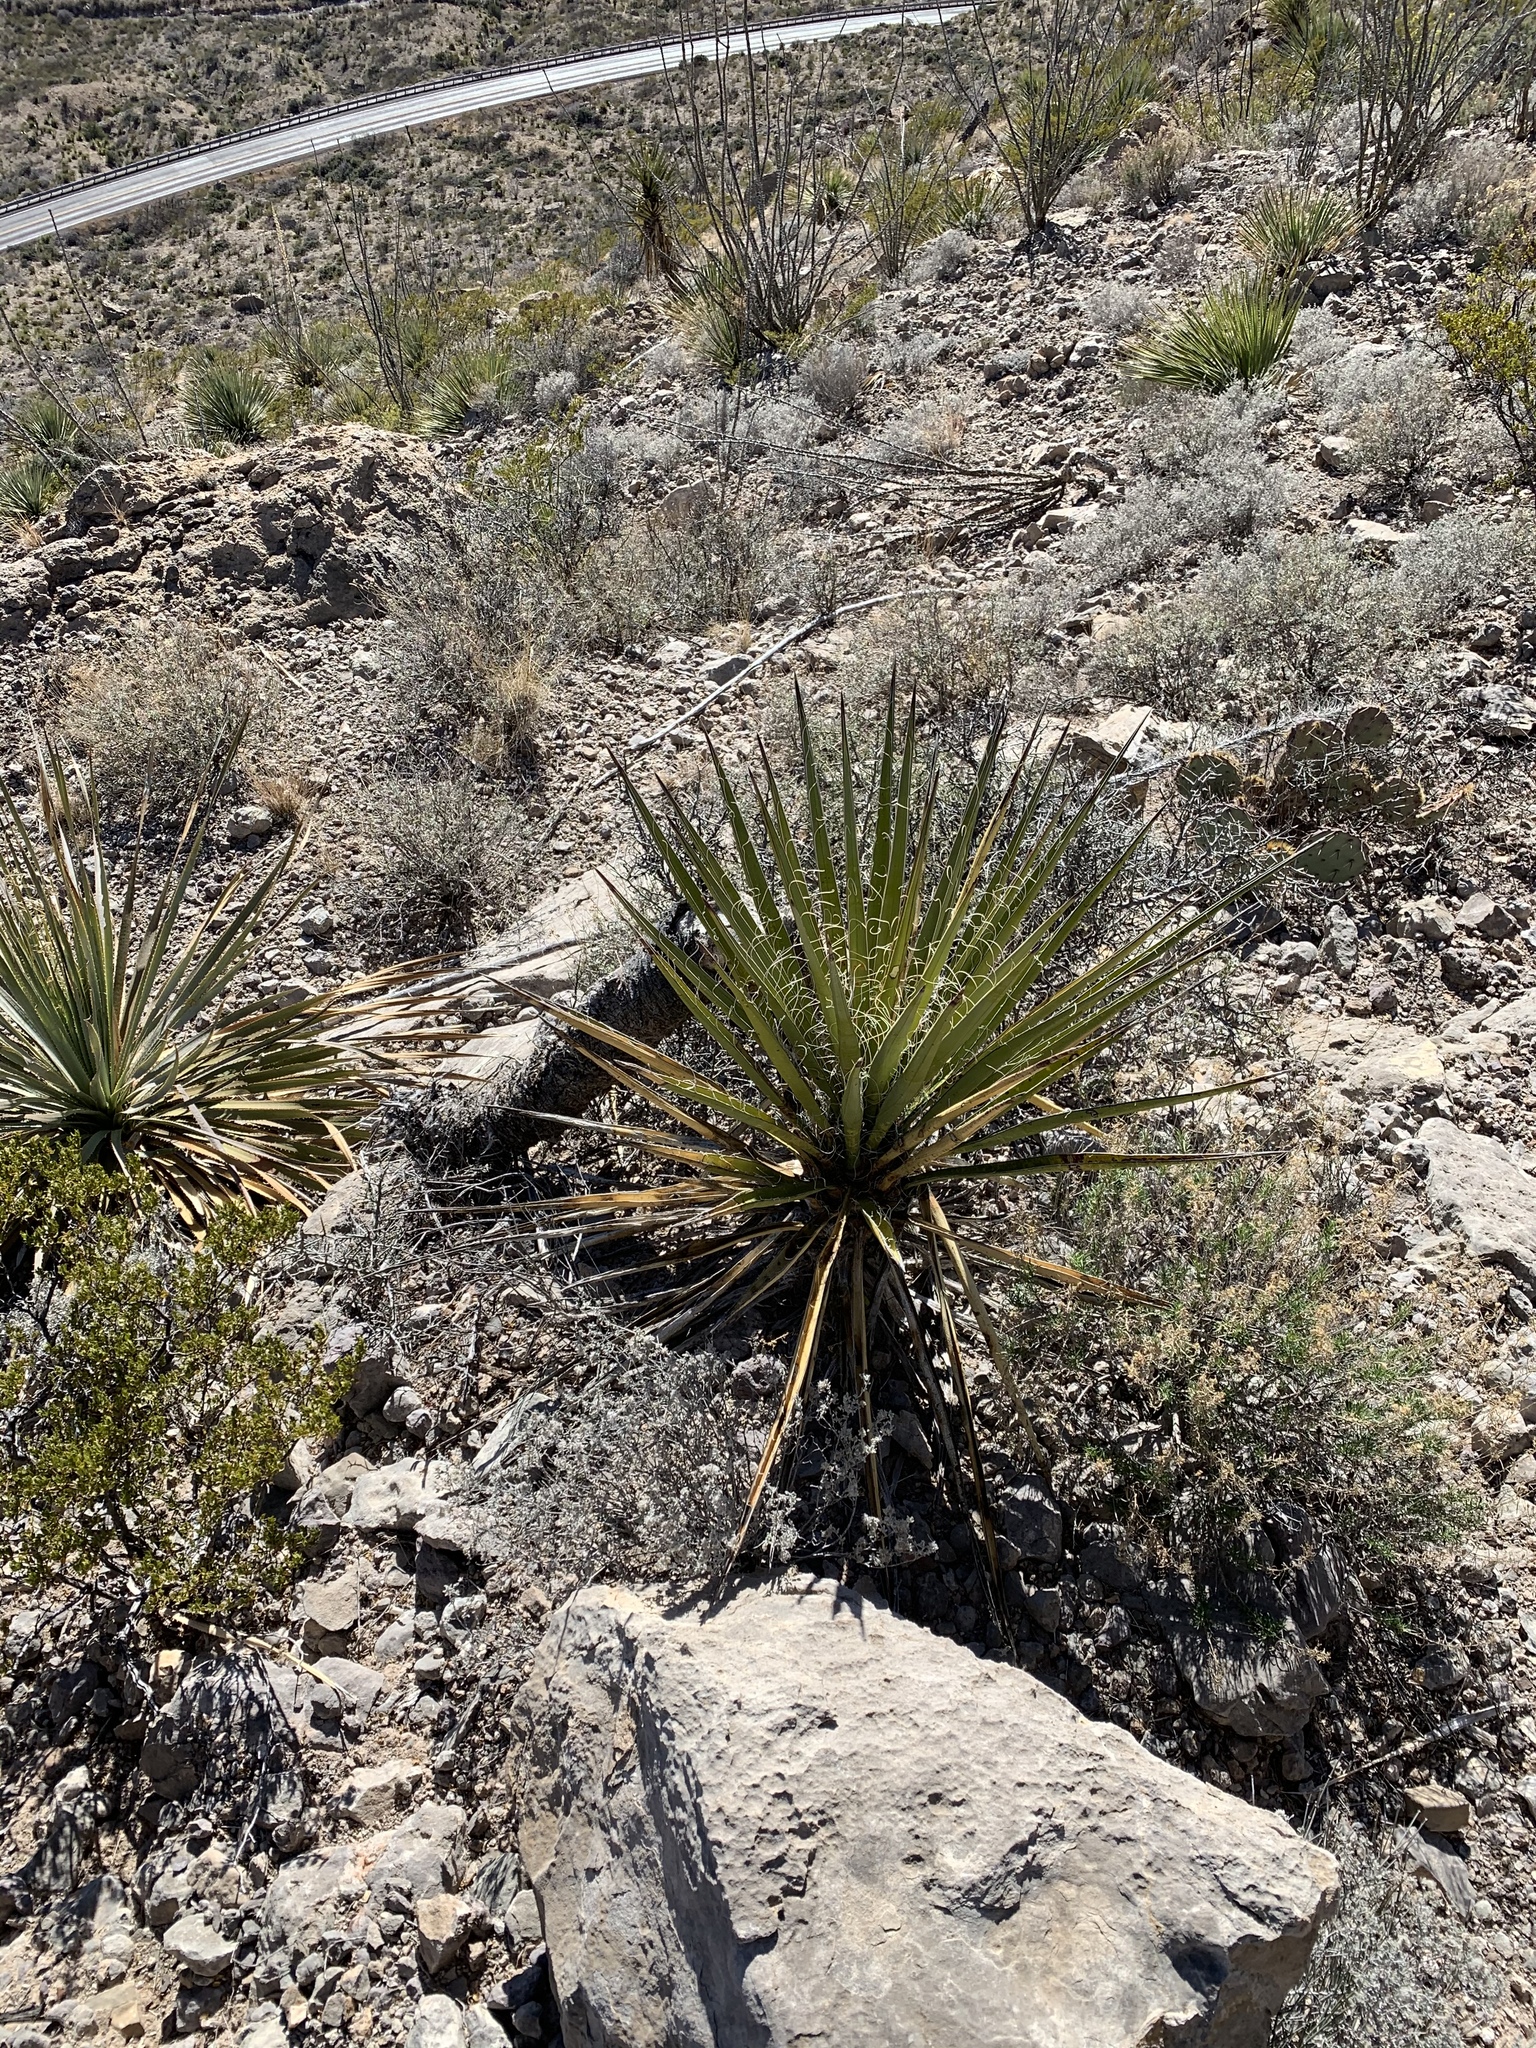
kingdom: Plantae
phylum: Tracheophyta
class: Liliopsida
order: Asparagales
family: Asparagaceae
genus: Yucca
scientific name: Yucca treculiana
